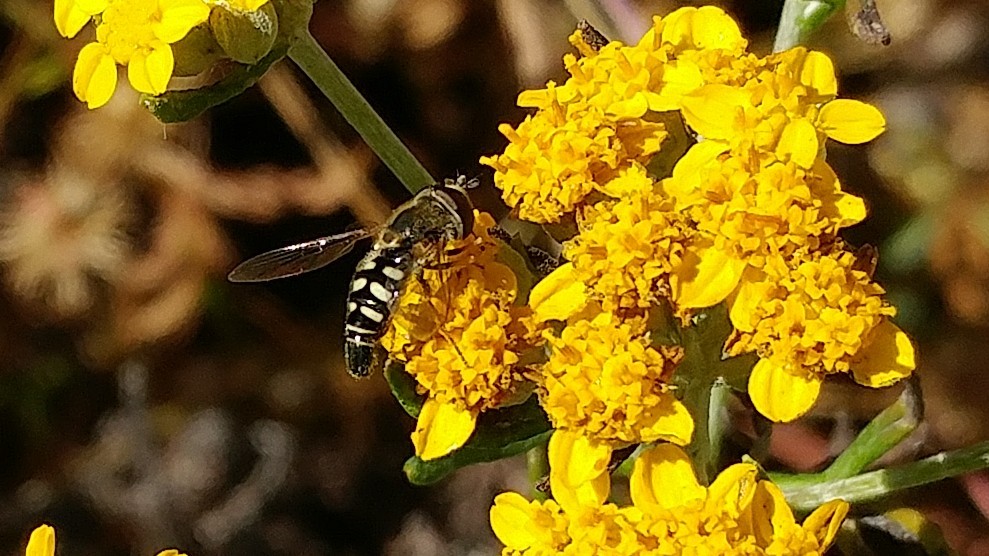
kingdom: Animalia
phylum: Arthropoda
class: Insecta
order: Diptera
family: Syrphidae
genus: Eupeodes
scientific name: Eupeodes volucris
